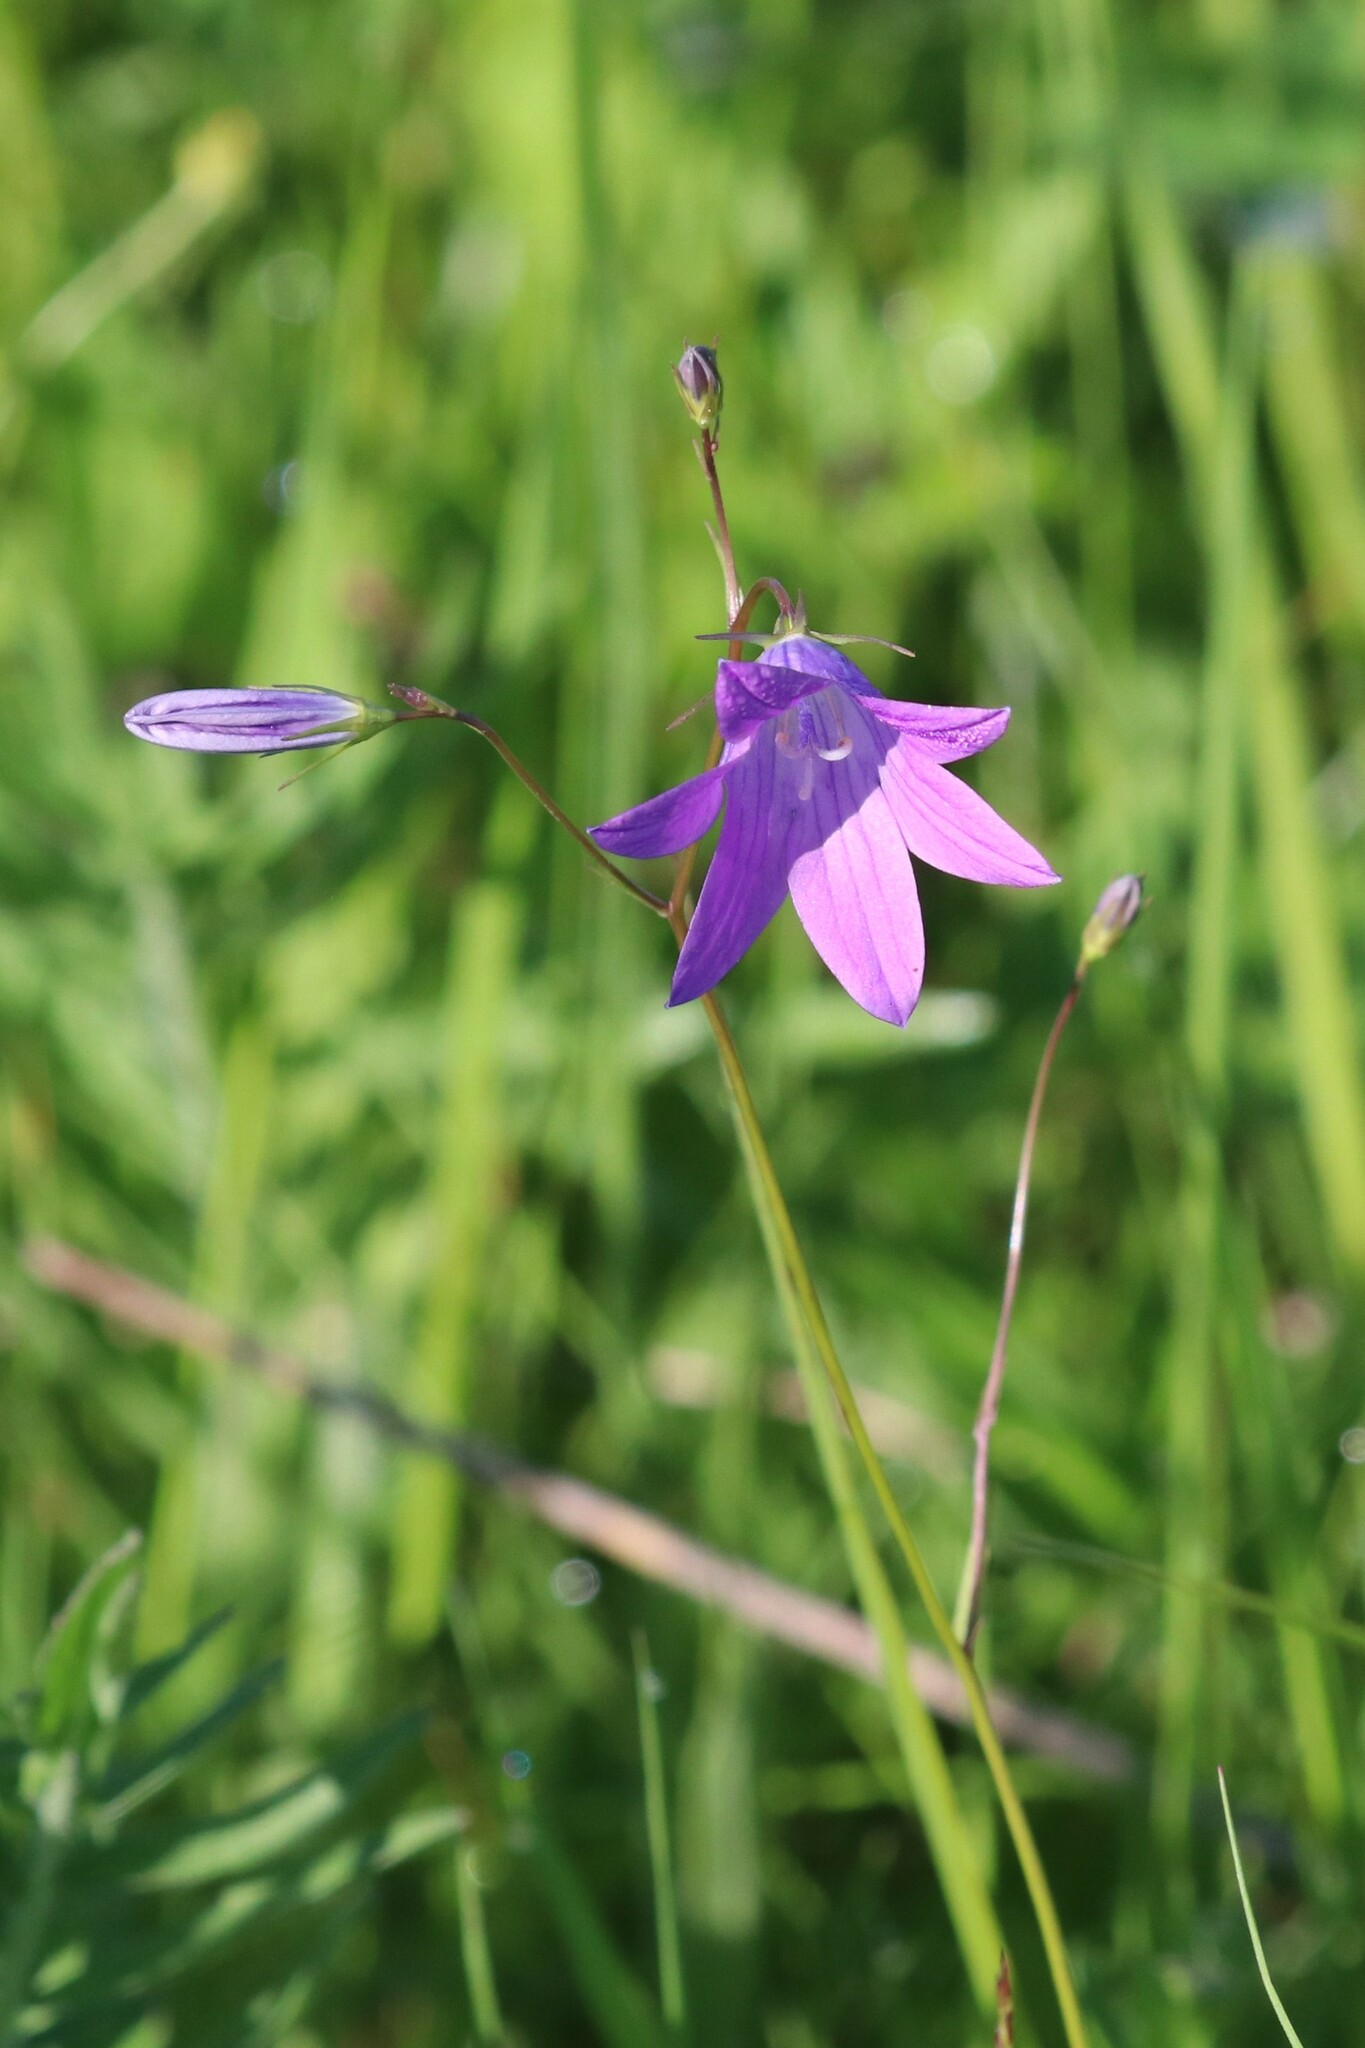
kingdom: Plantae
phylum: Tracheophyta
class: Magnoliopsida
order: Asterales
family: Campanulaceae
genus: Campanula
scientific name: Campanula patula
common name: Spreading bellflower
